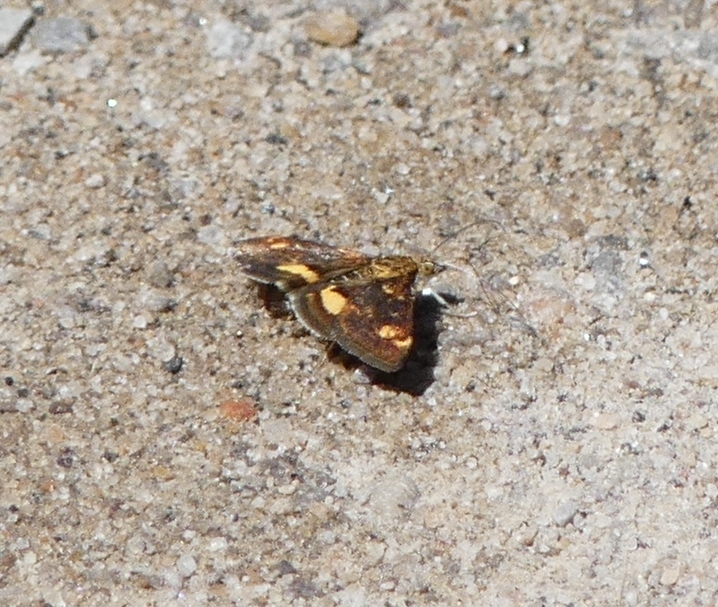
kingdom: Animalia
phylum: Arthropoda
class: Insecta
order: Lepidoptera
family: Crambidae
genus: Pyrausta
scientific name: Pyrausta orphisalis
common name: Orange mint moth
